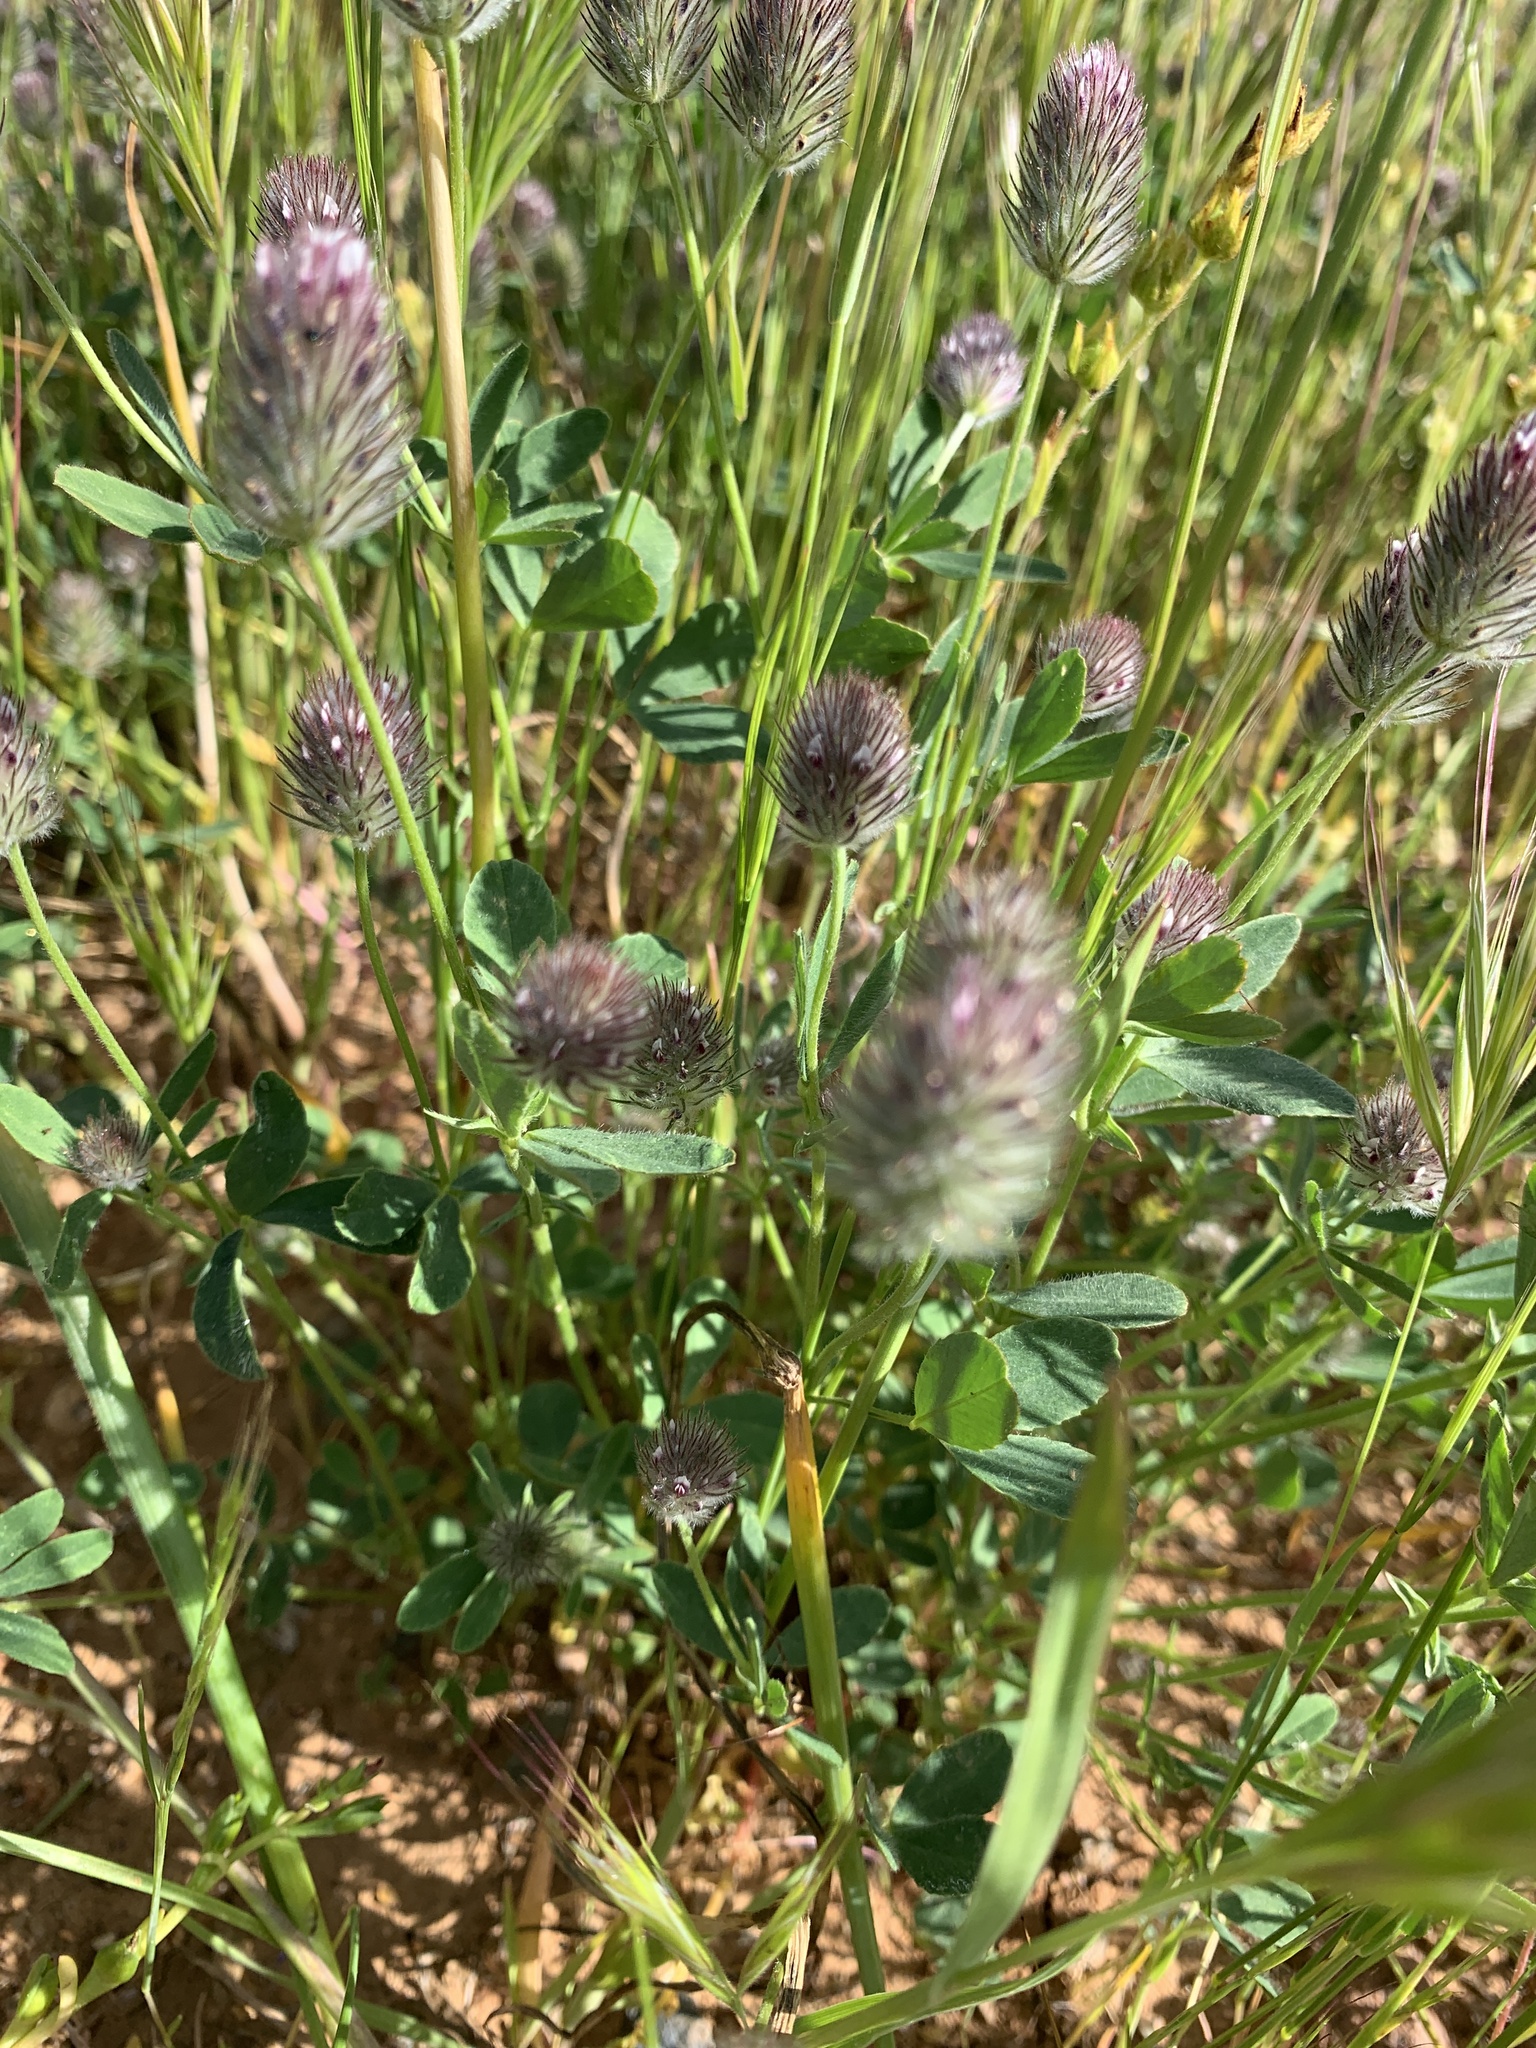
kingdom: Plantae
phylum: Tracheophyta
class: Magnoliopsida
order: Fabales
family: Fabaceae
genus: Trifolium
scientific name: Trifolium albopurpureum
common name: Rancheria clover
